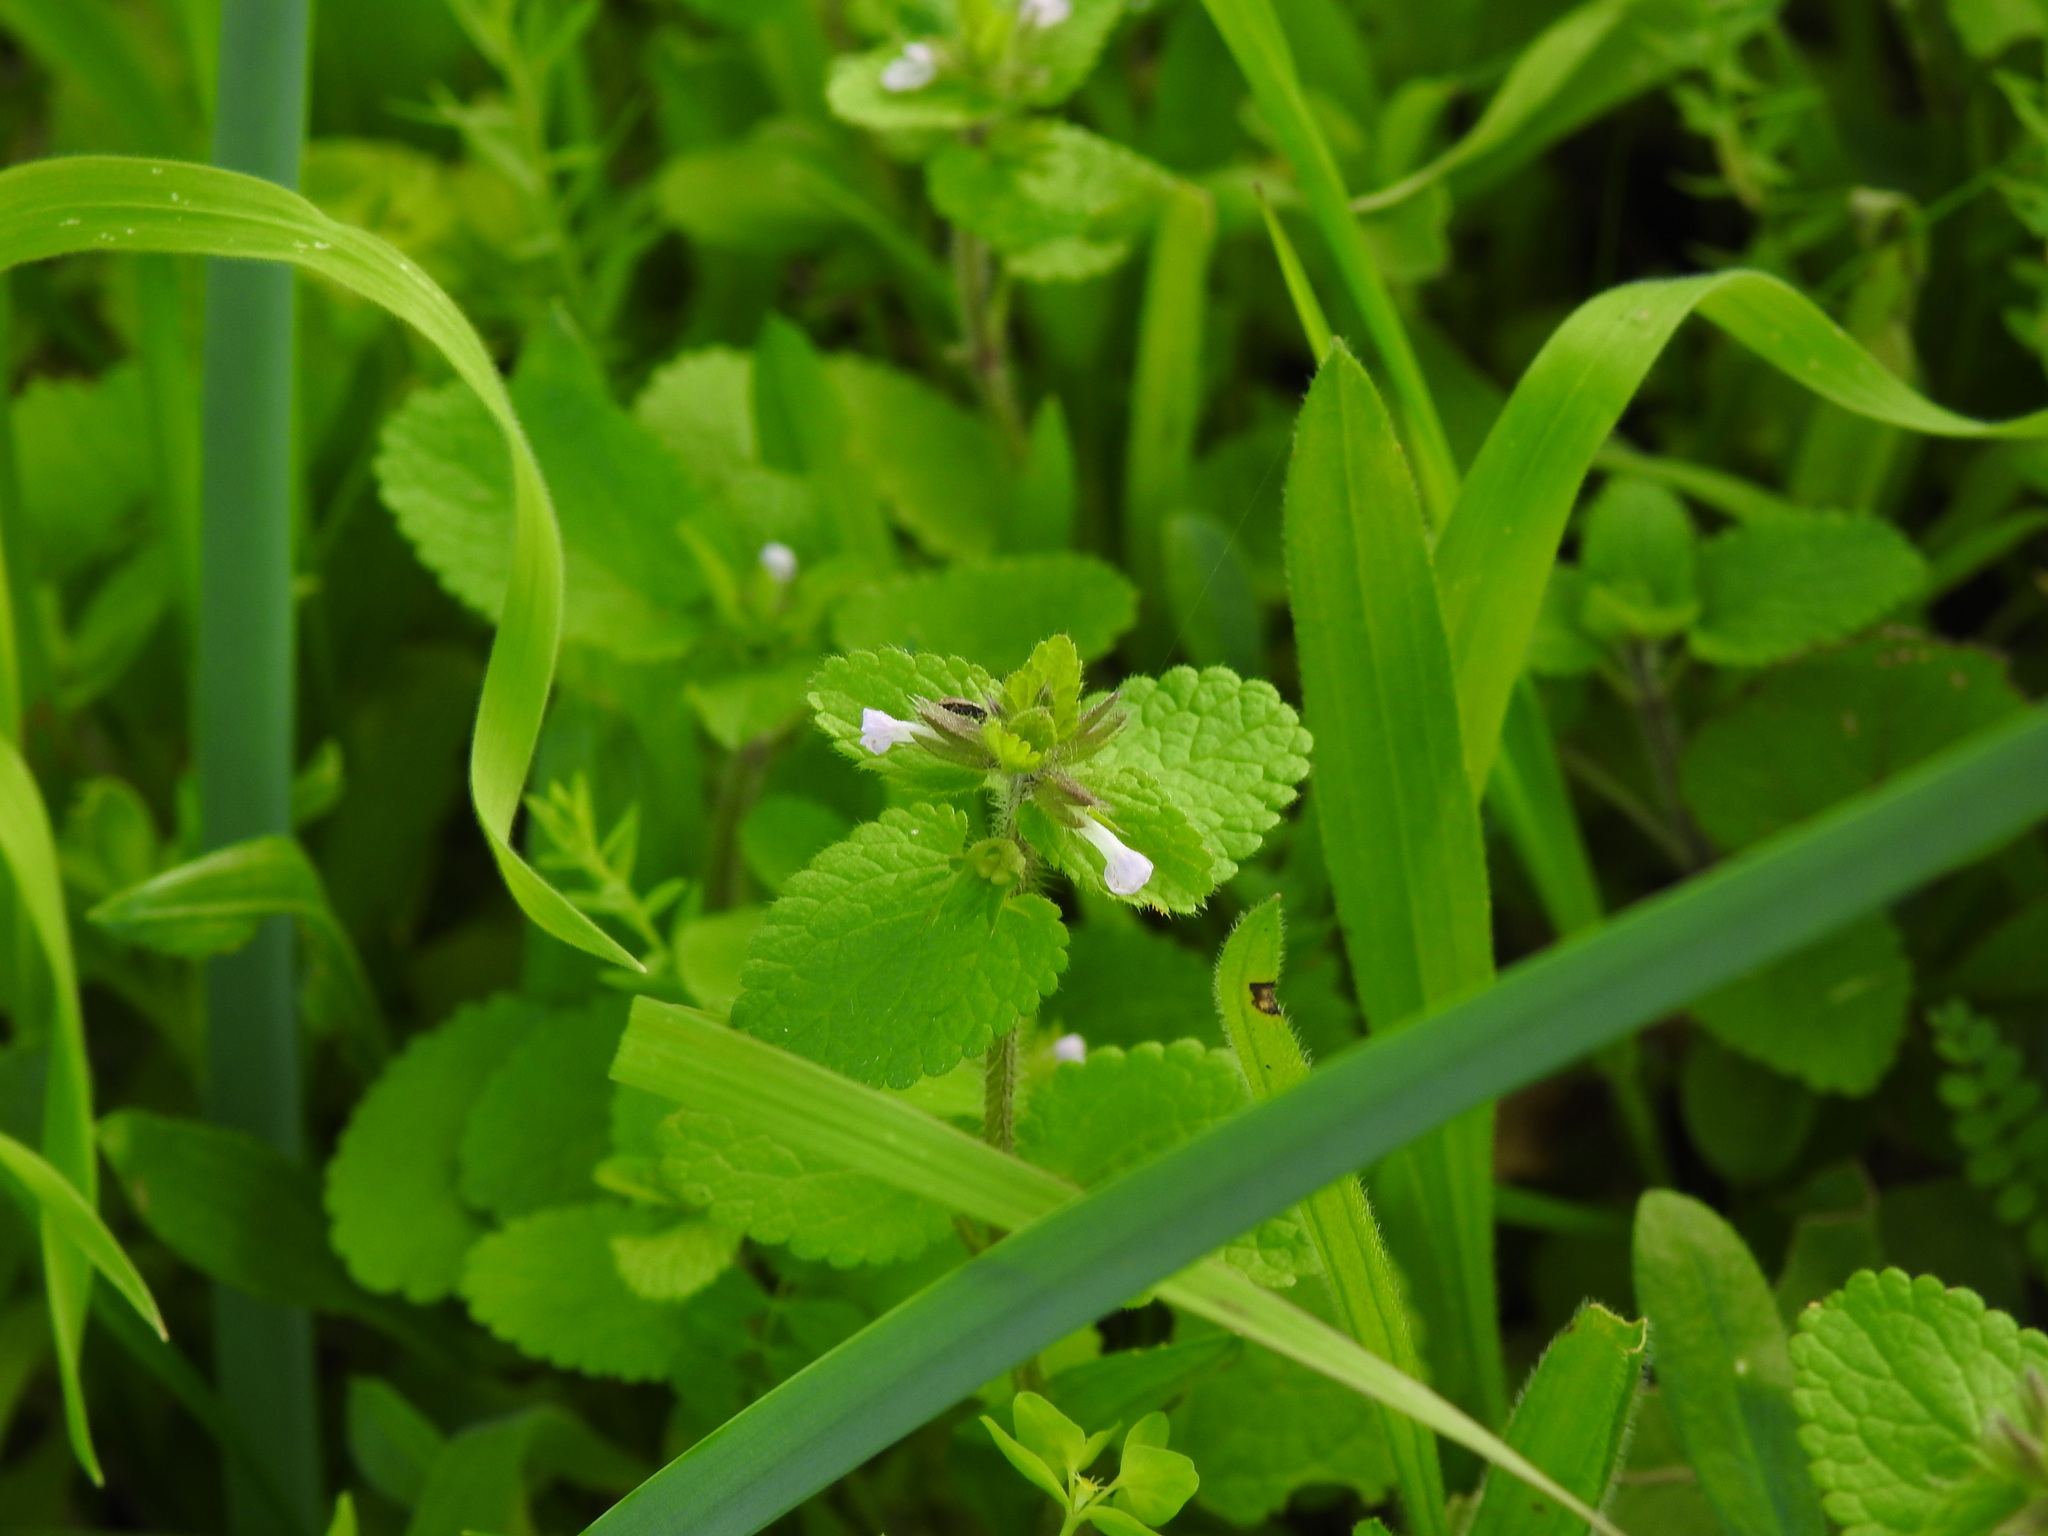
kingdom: Plantae
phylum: Tracheophyta
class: Magnoliopsida
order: Lamiales
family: Lamiaceae
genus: Stachys
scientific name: Stachys arvensis
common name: Field woundwort
